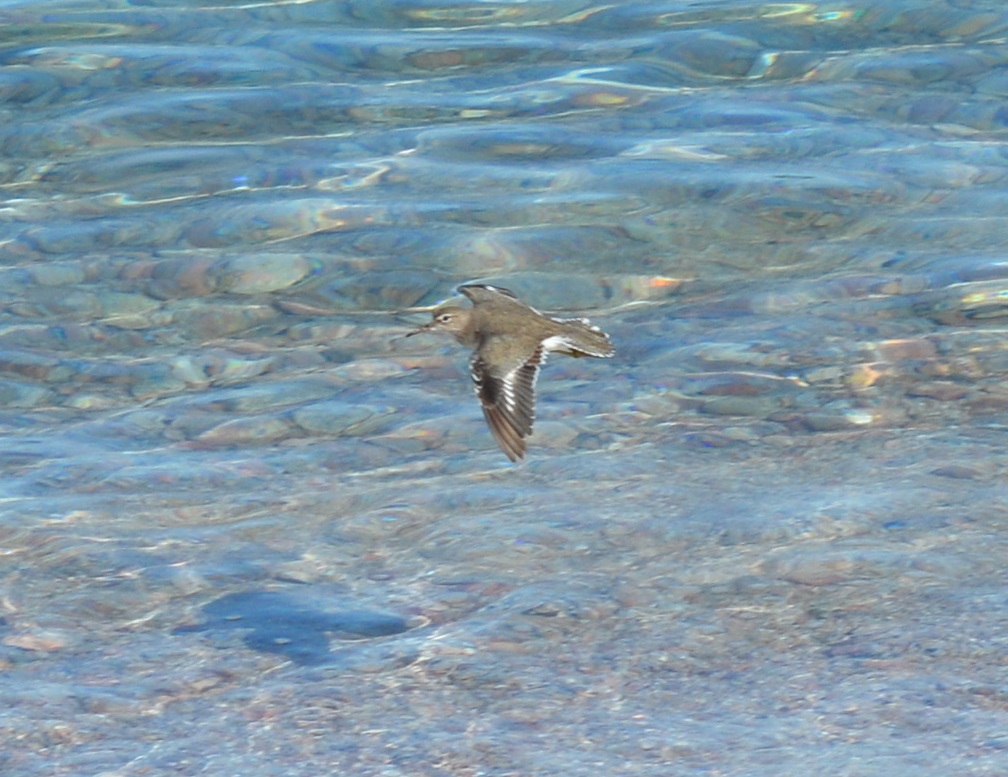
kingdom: Animalia
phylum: Chordata
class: Aves
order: Charadriiformes
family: Scolopacidae
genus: Actitis
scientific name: Actitis macularius
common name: Spotted sandpiper
